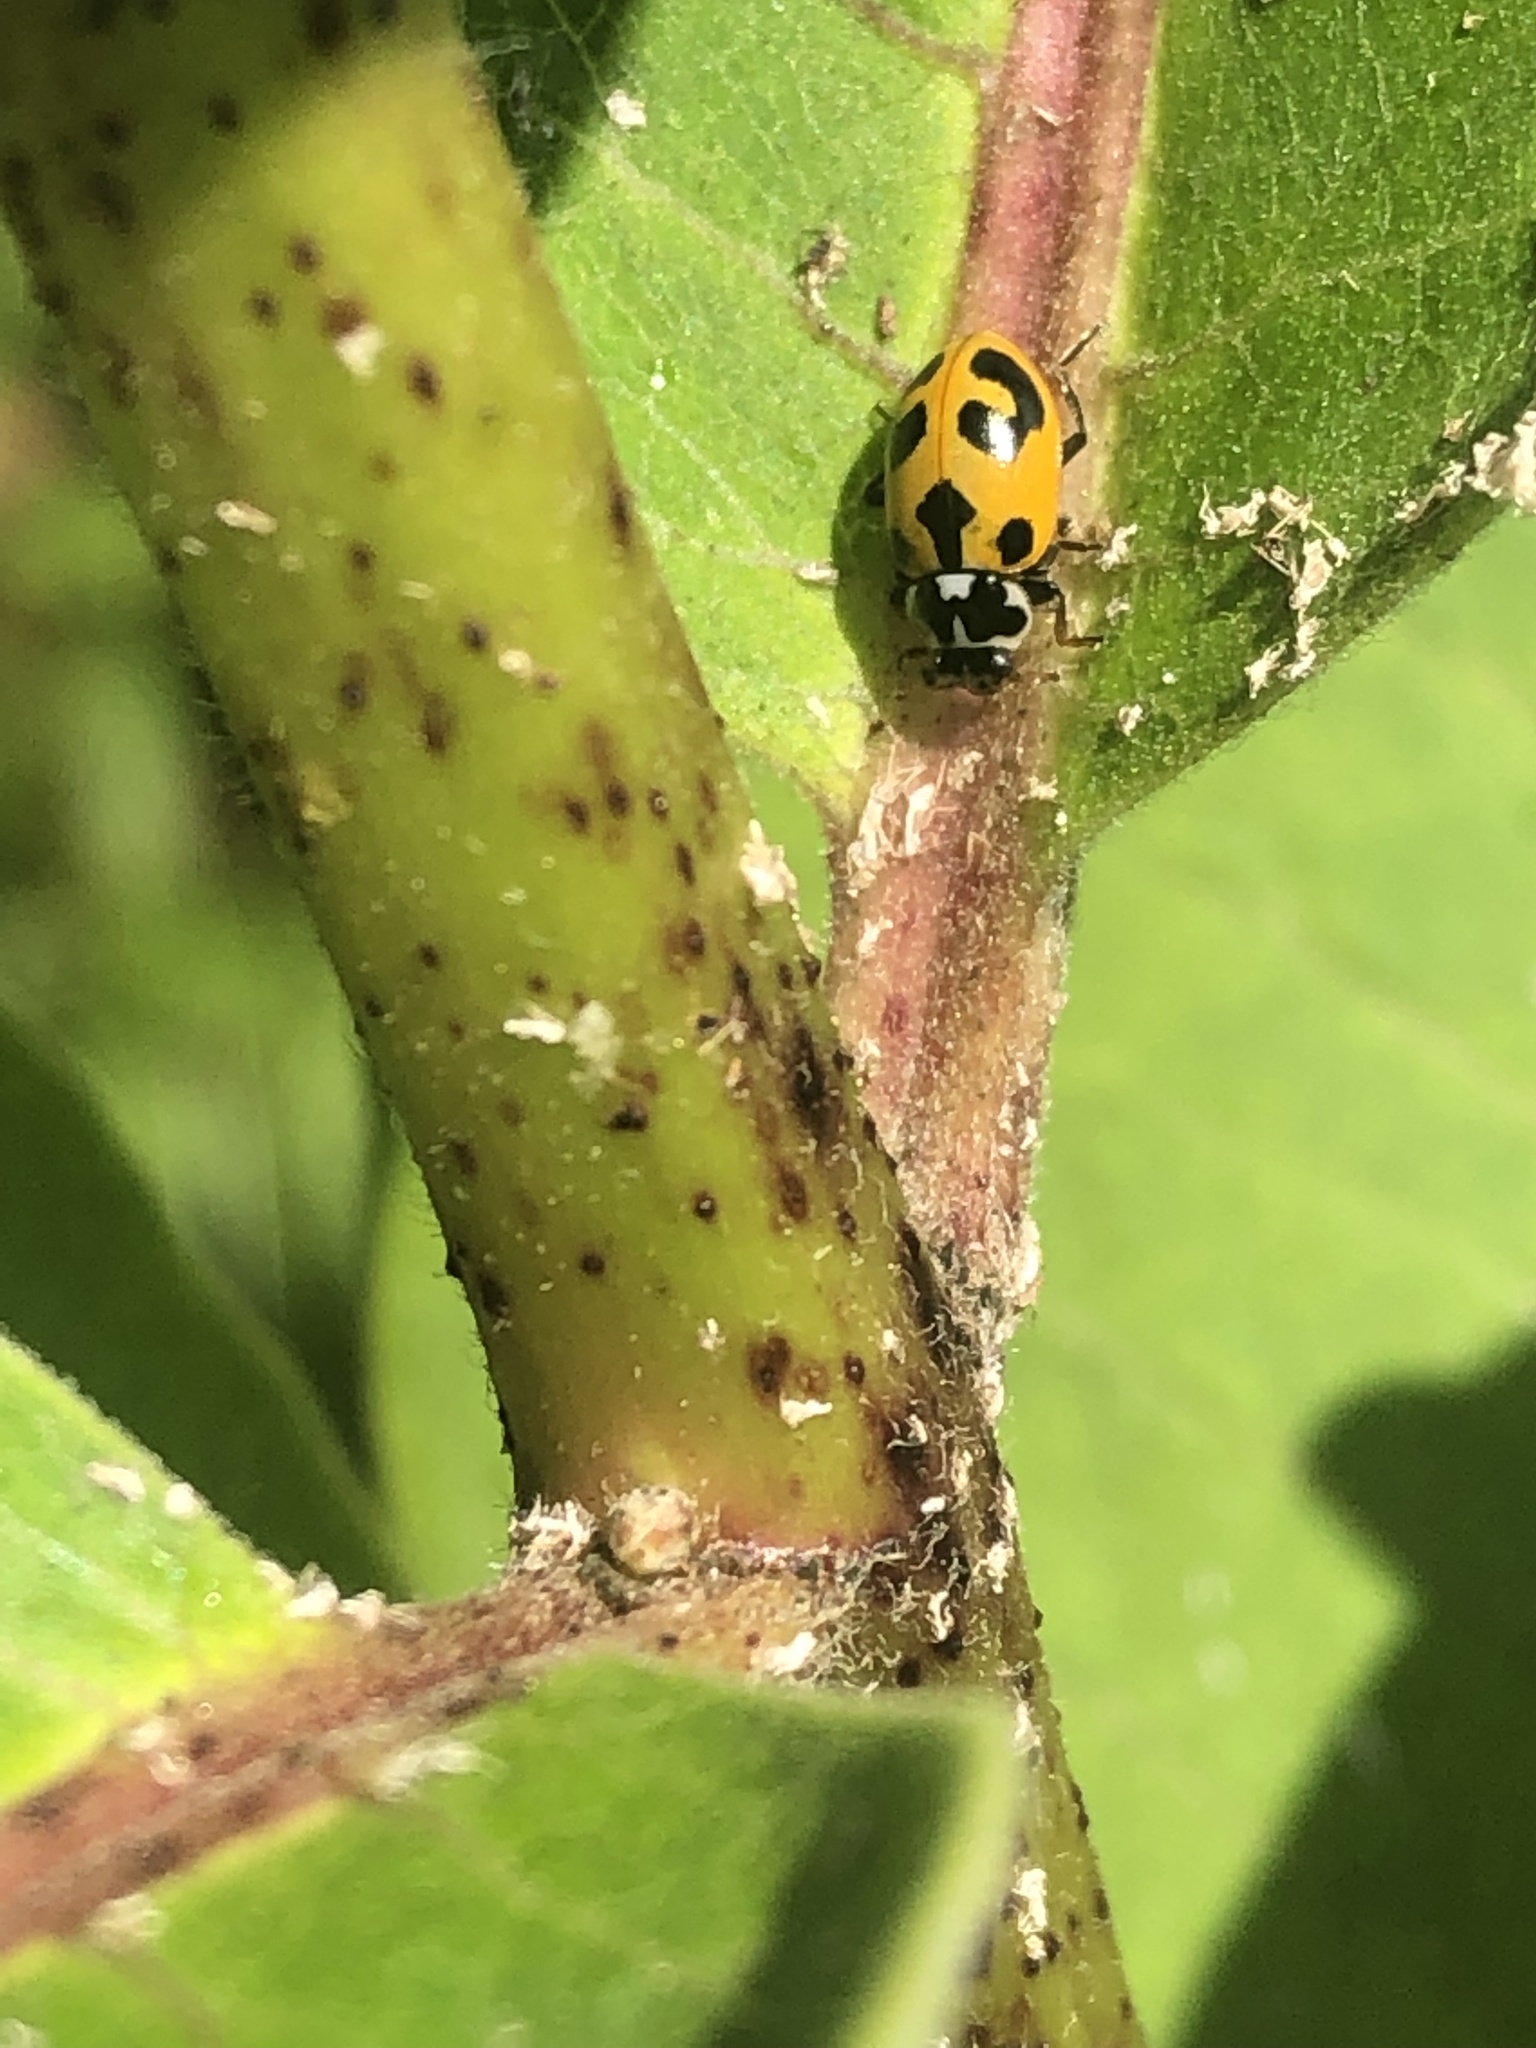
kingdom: Animalia
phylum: Arthropoda
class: Insecta
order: Coleoptera
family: Coccinellidae
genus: Hippodamia
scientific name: Hippodamia parenthesis
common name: Parenthesis lady beetle
